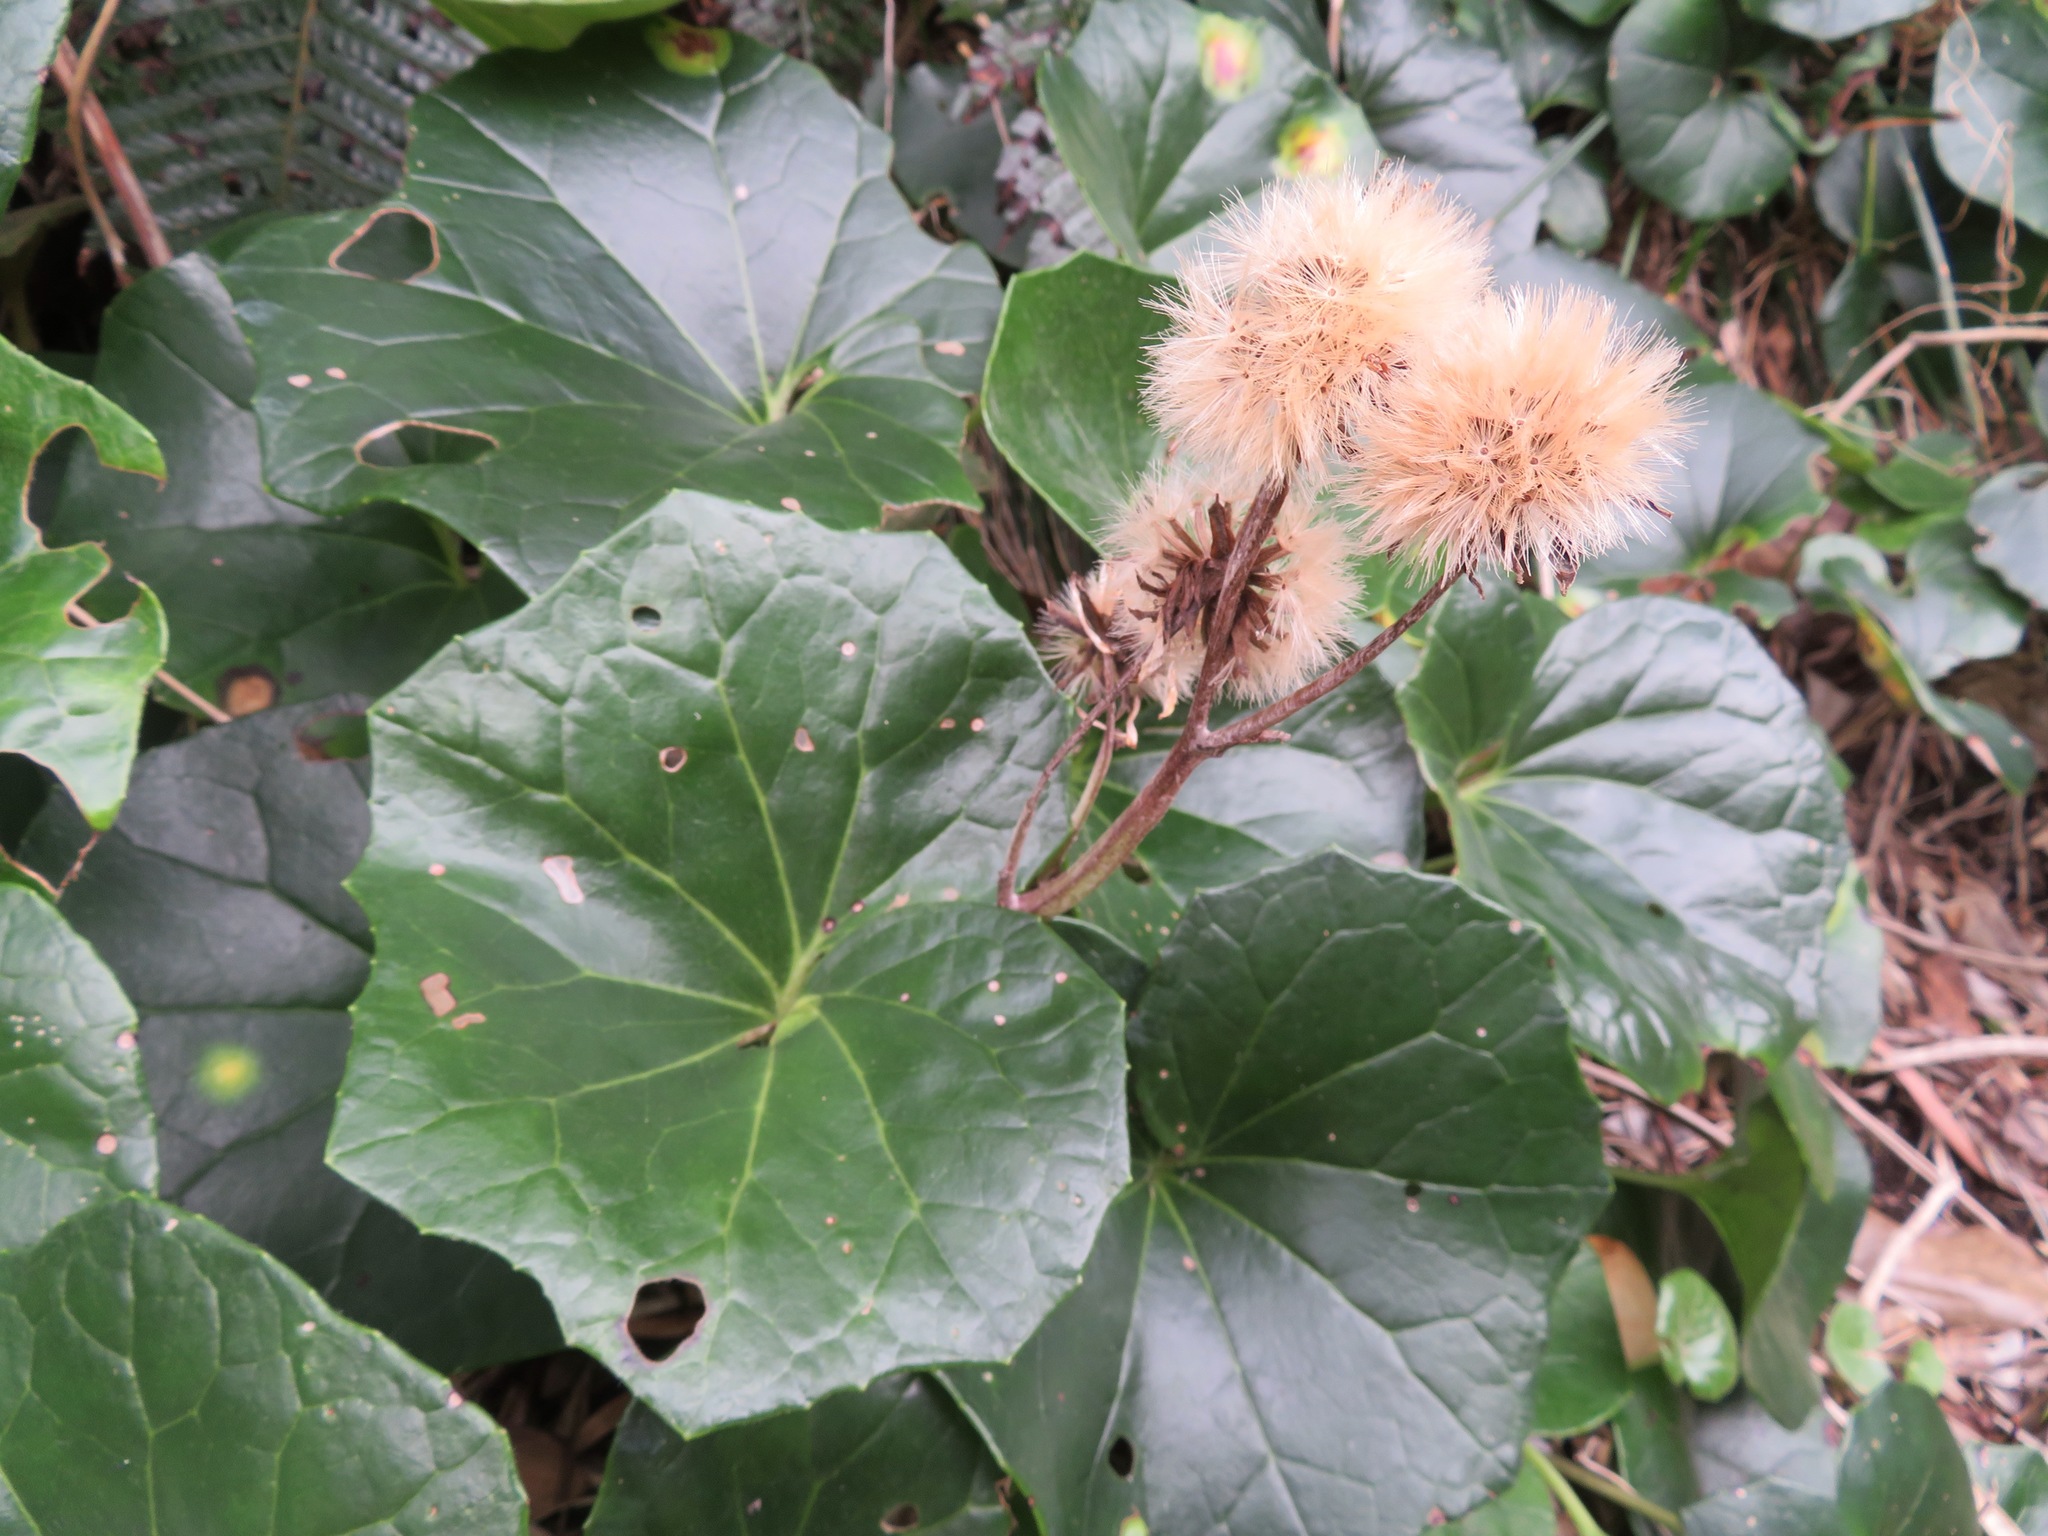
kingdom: Plantae
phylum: Tracheophyta
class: Magnoliopsida
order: Asterales
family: Asteraceae
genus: Farfugium
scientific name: Farfugium japonicum
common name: Leopardplant
